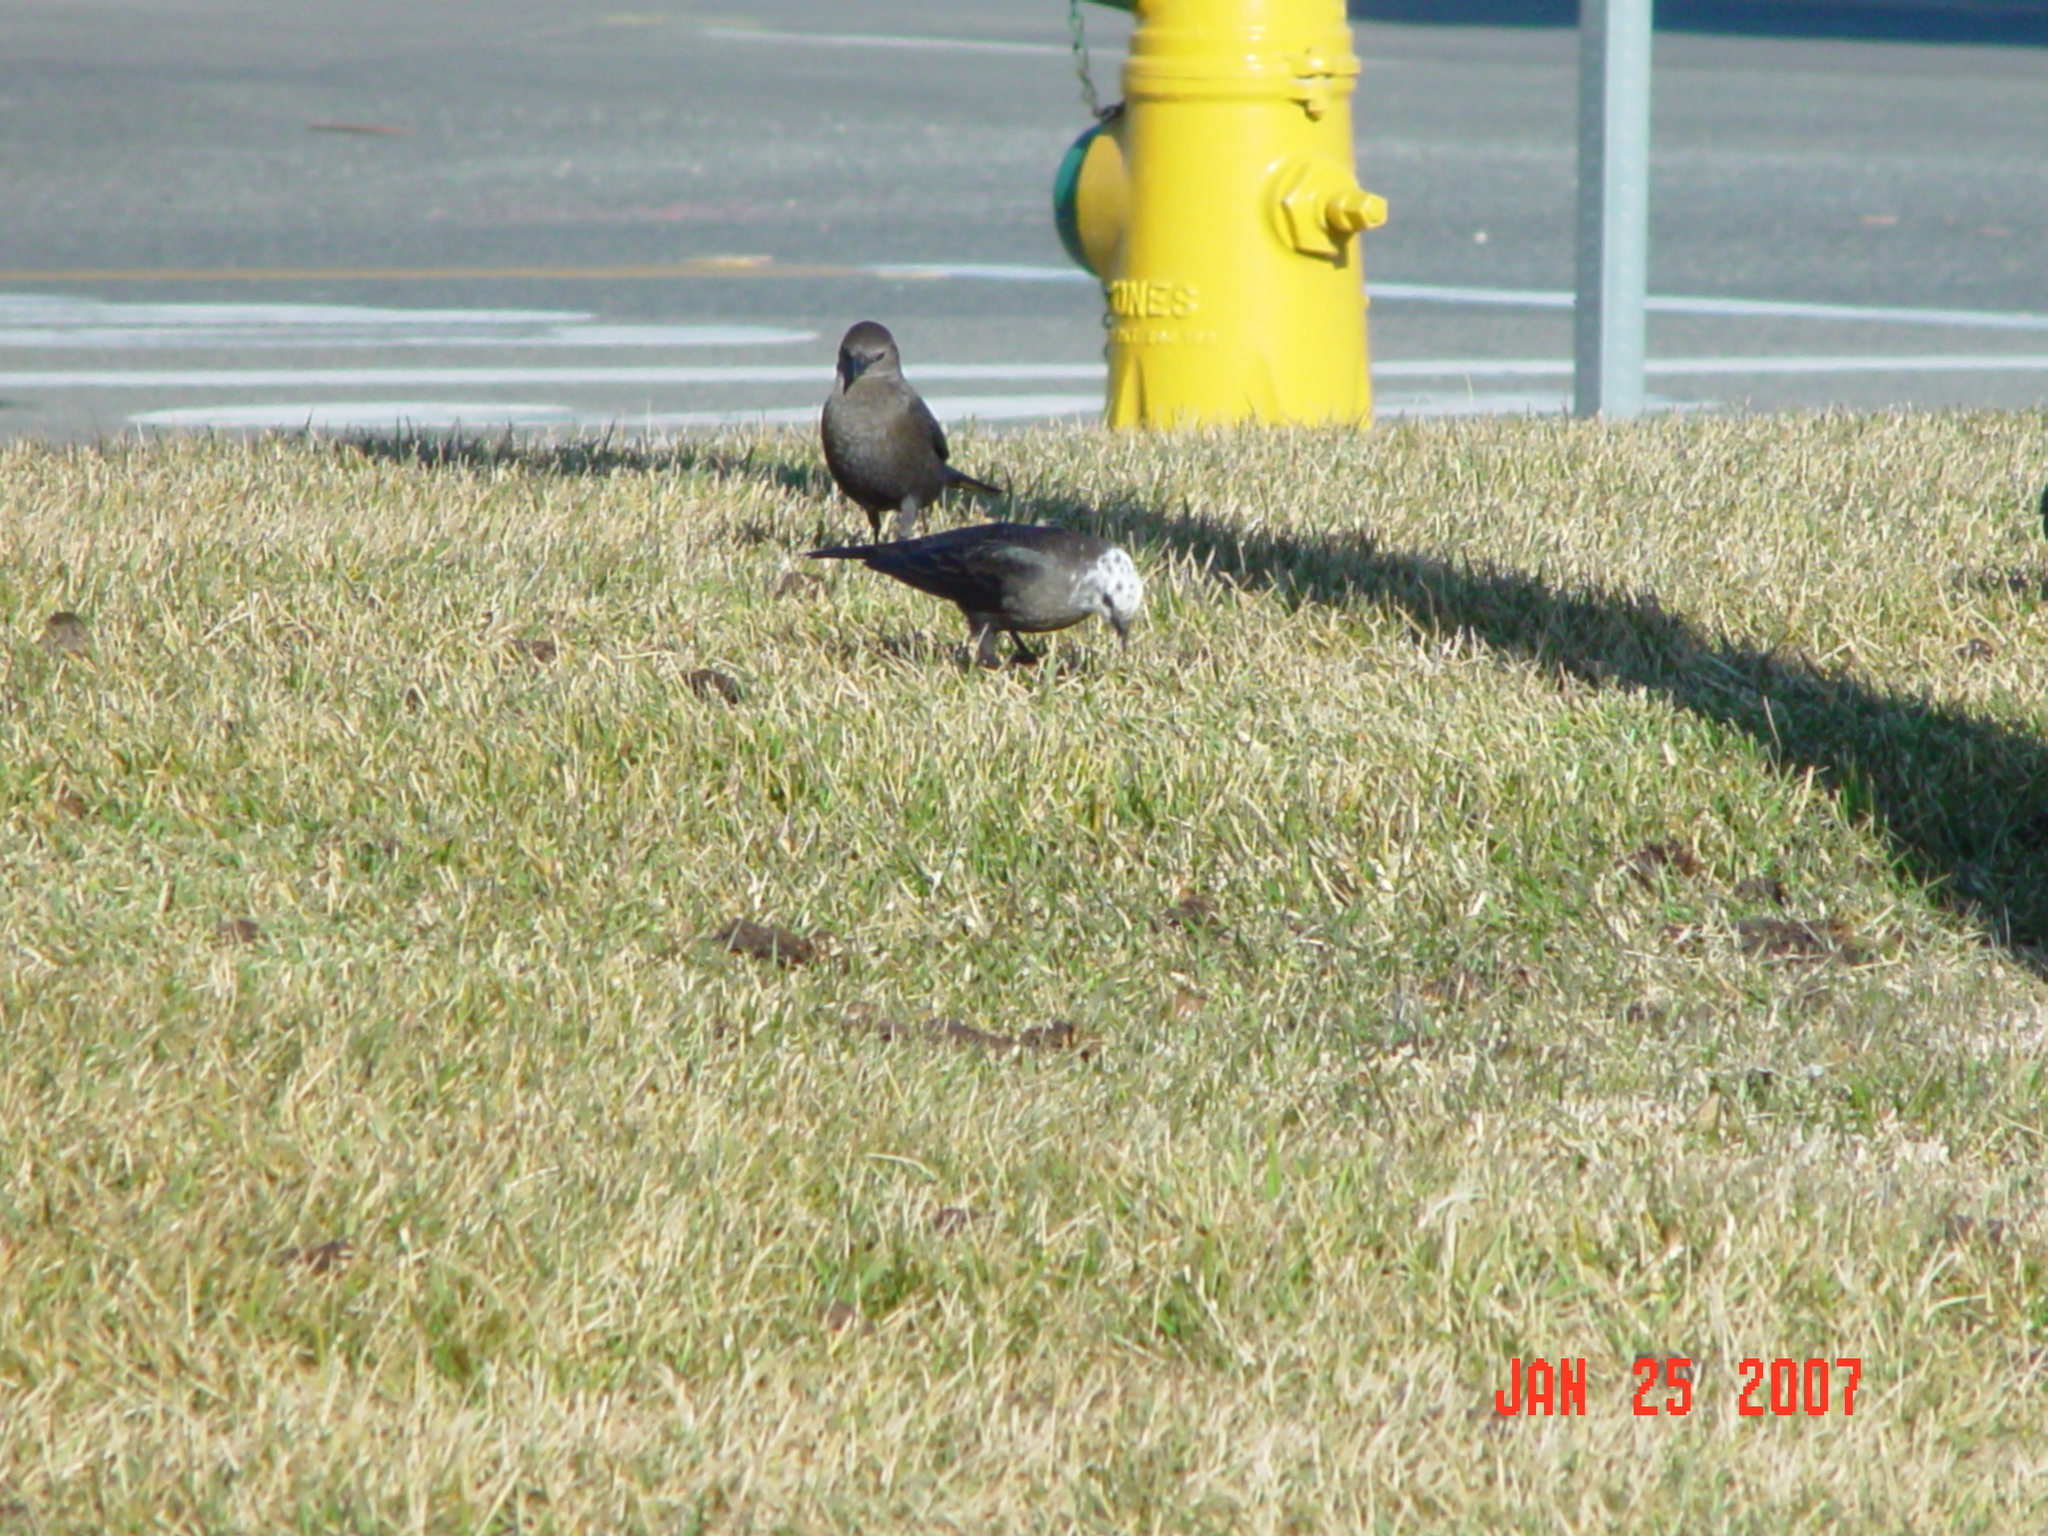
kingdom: Animalia
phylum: Chordata
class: Aves
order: Passeriformes
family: Icteridae
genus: Euphagus
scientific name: Euphagus cyanocephalus
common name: Brewer's blackbird
